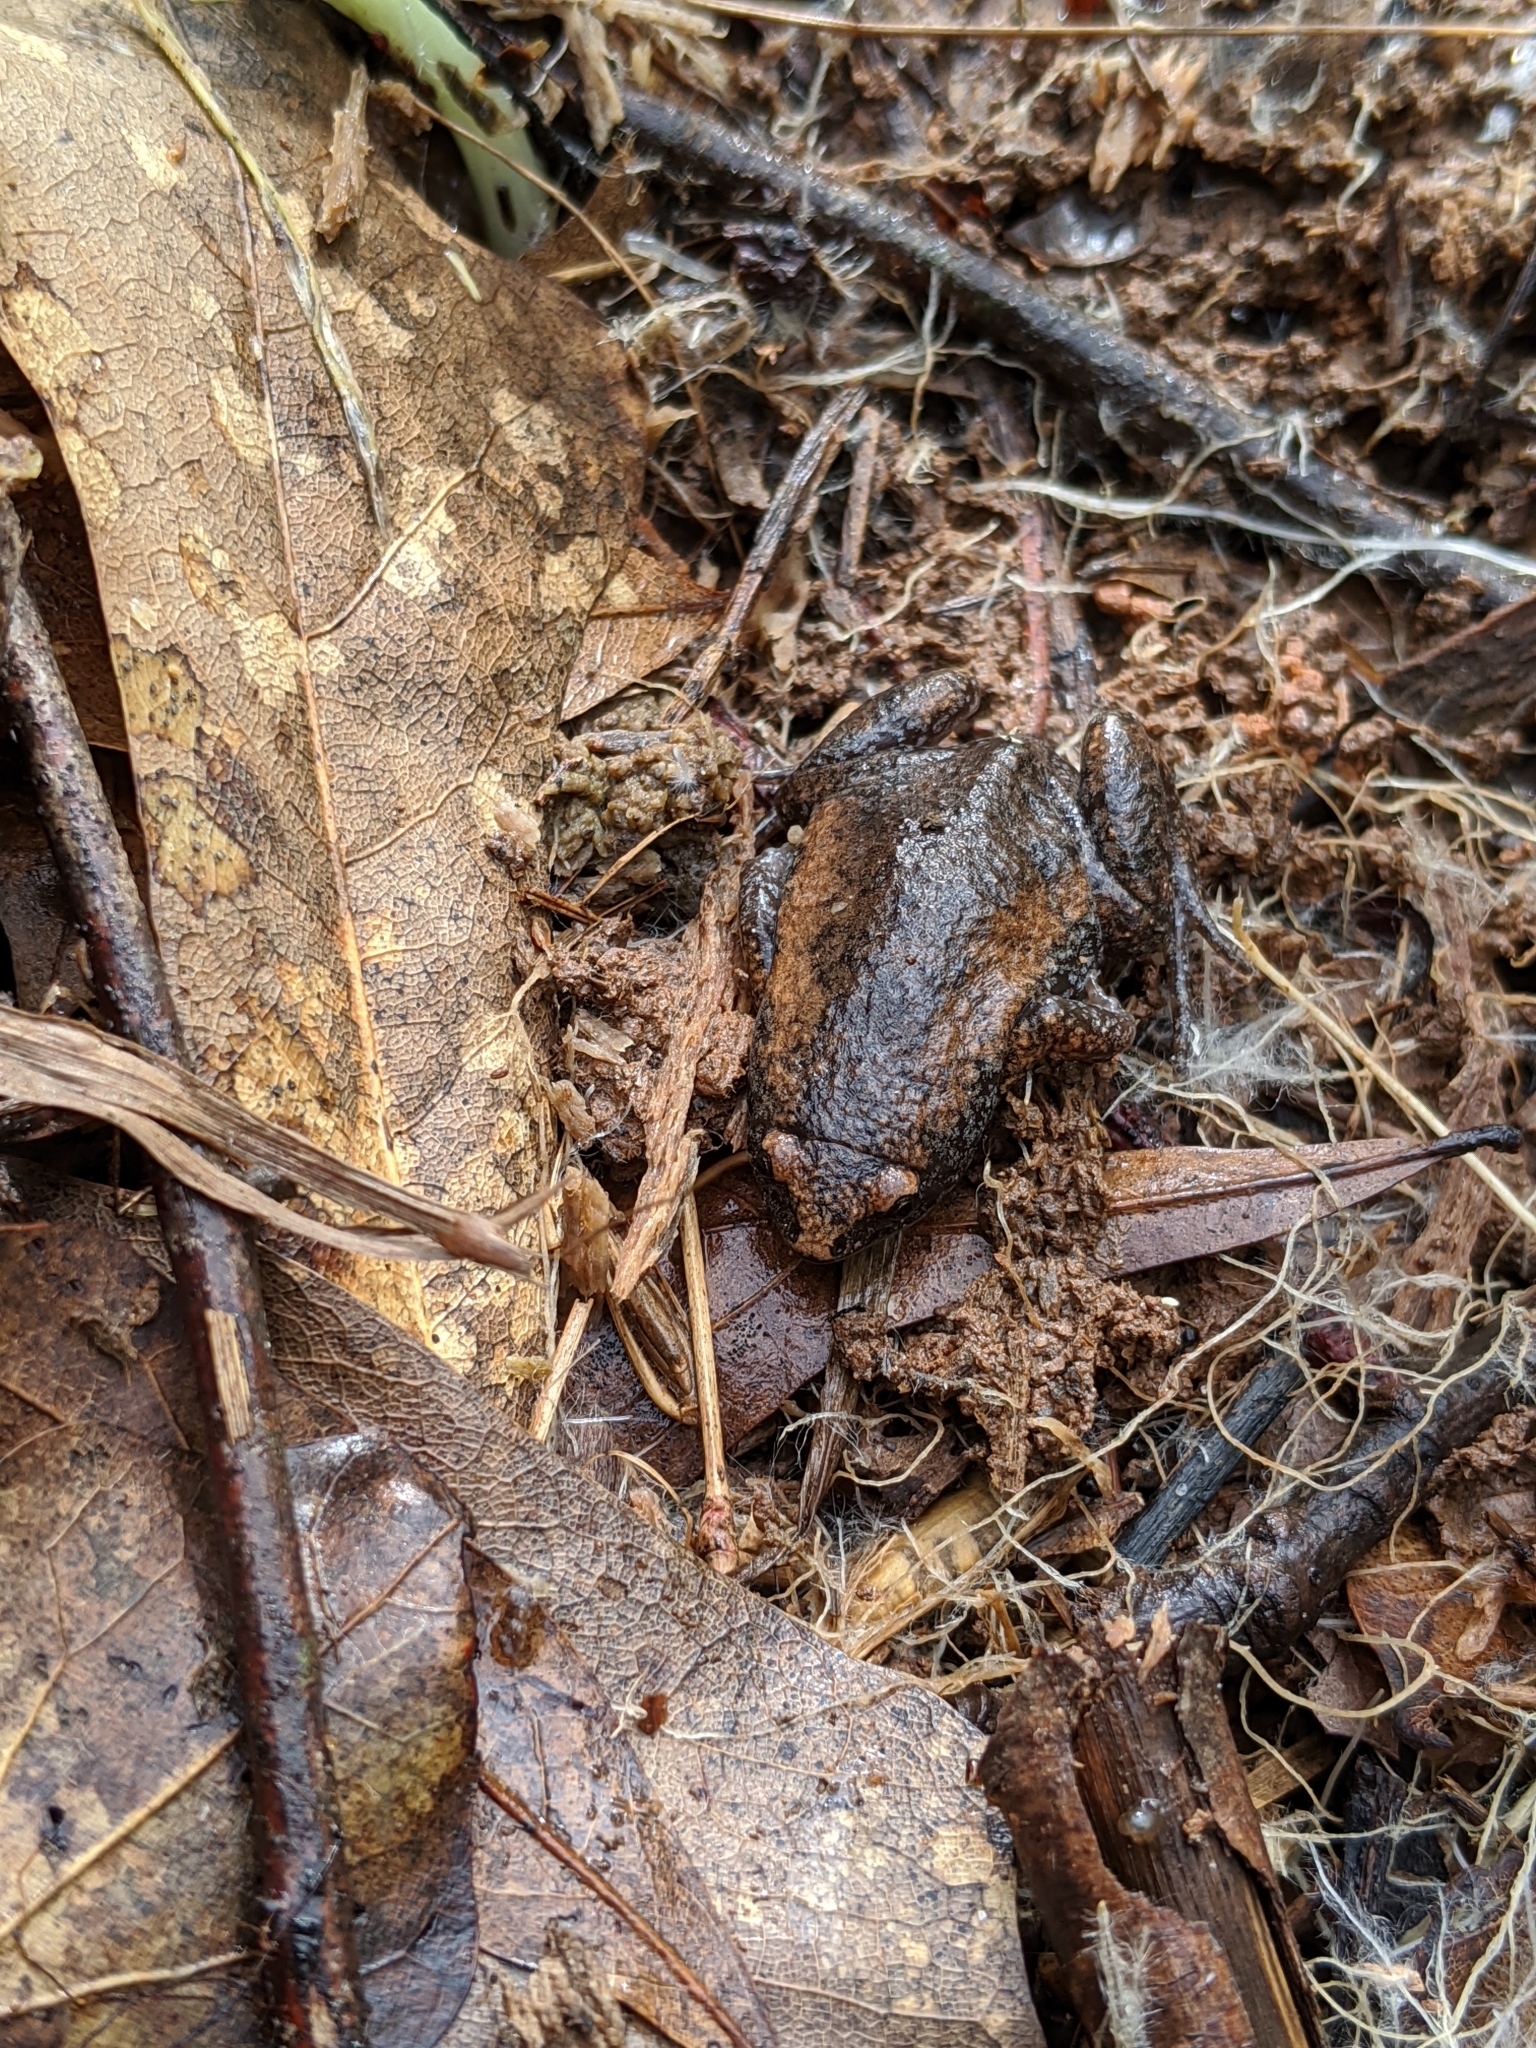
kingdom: Animalia
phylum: Chordata
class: Amphibia
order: Anura
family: Microhylidae
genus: Gastrophryne
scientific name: Gastrophryne carolinensis
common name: Eastern narrowmouth toad
